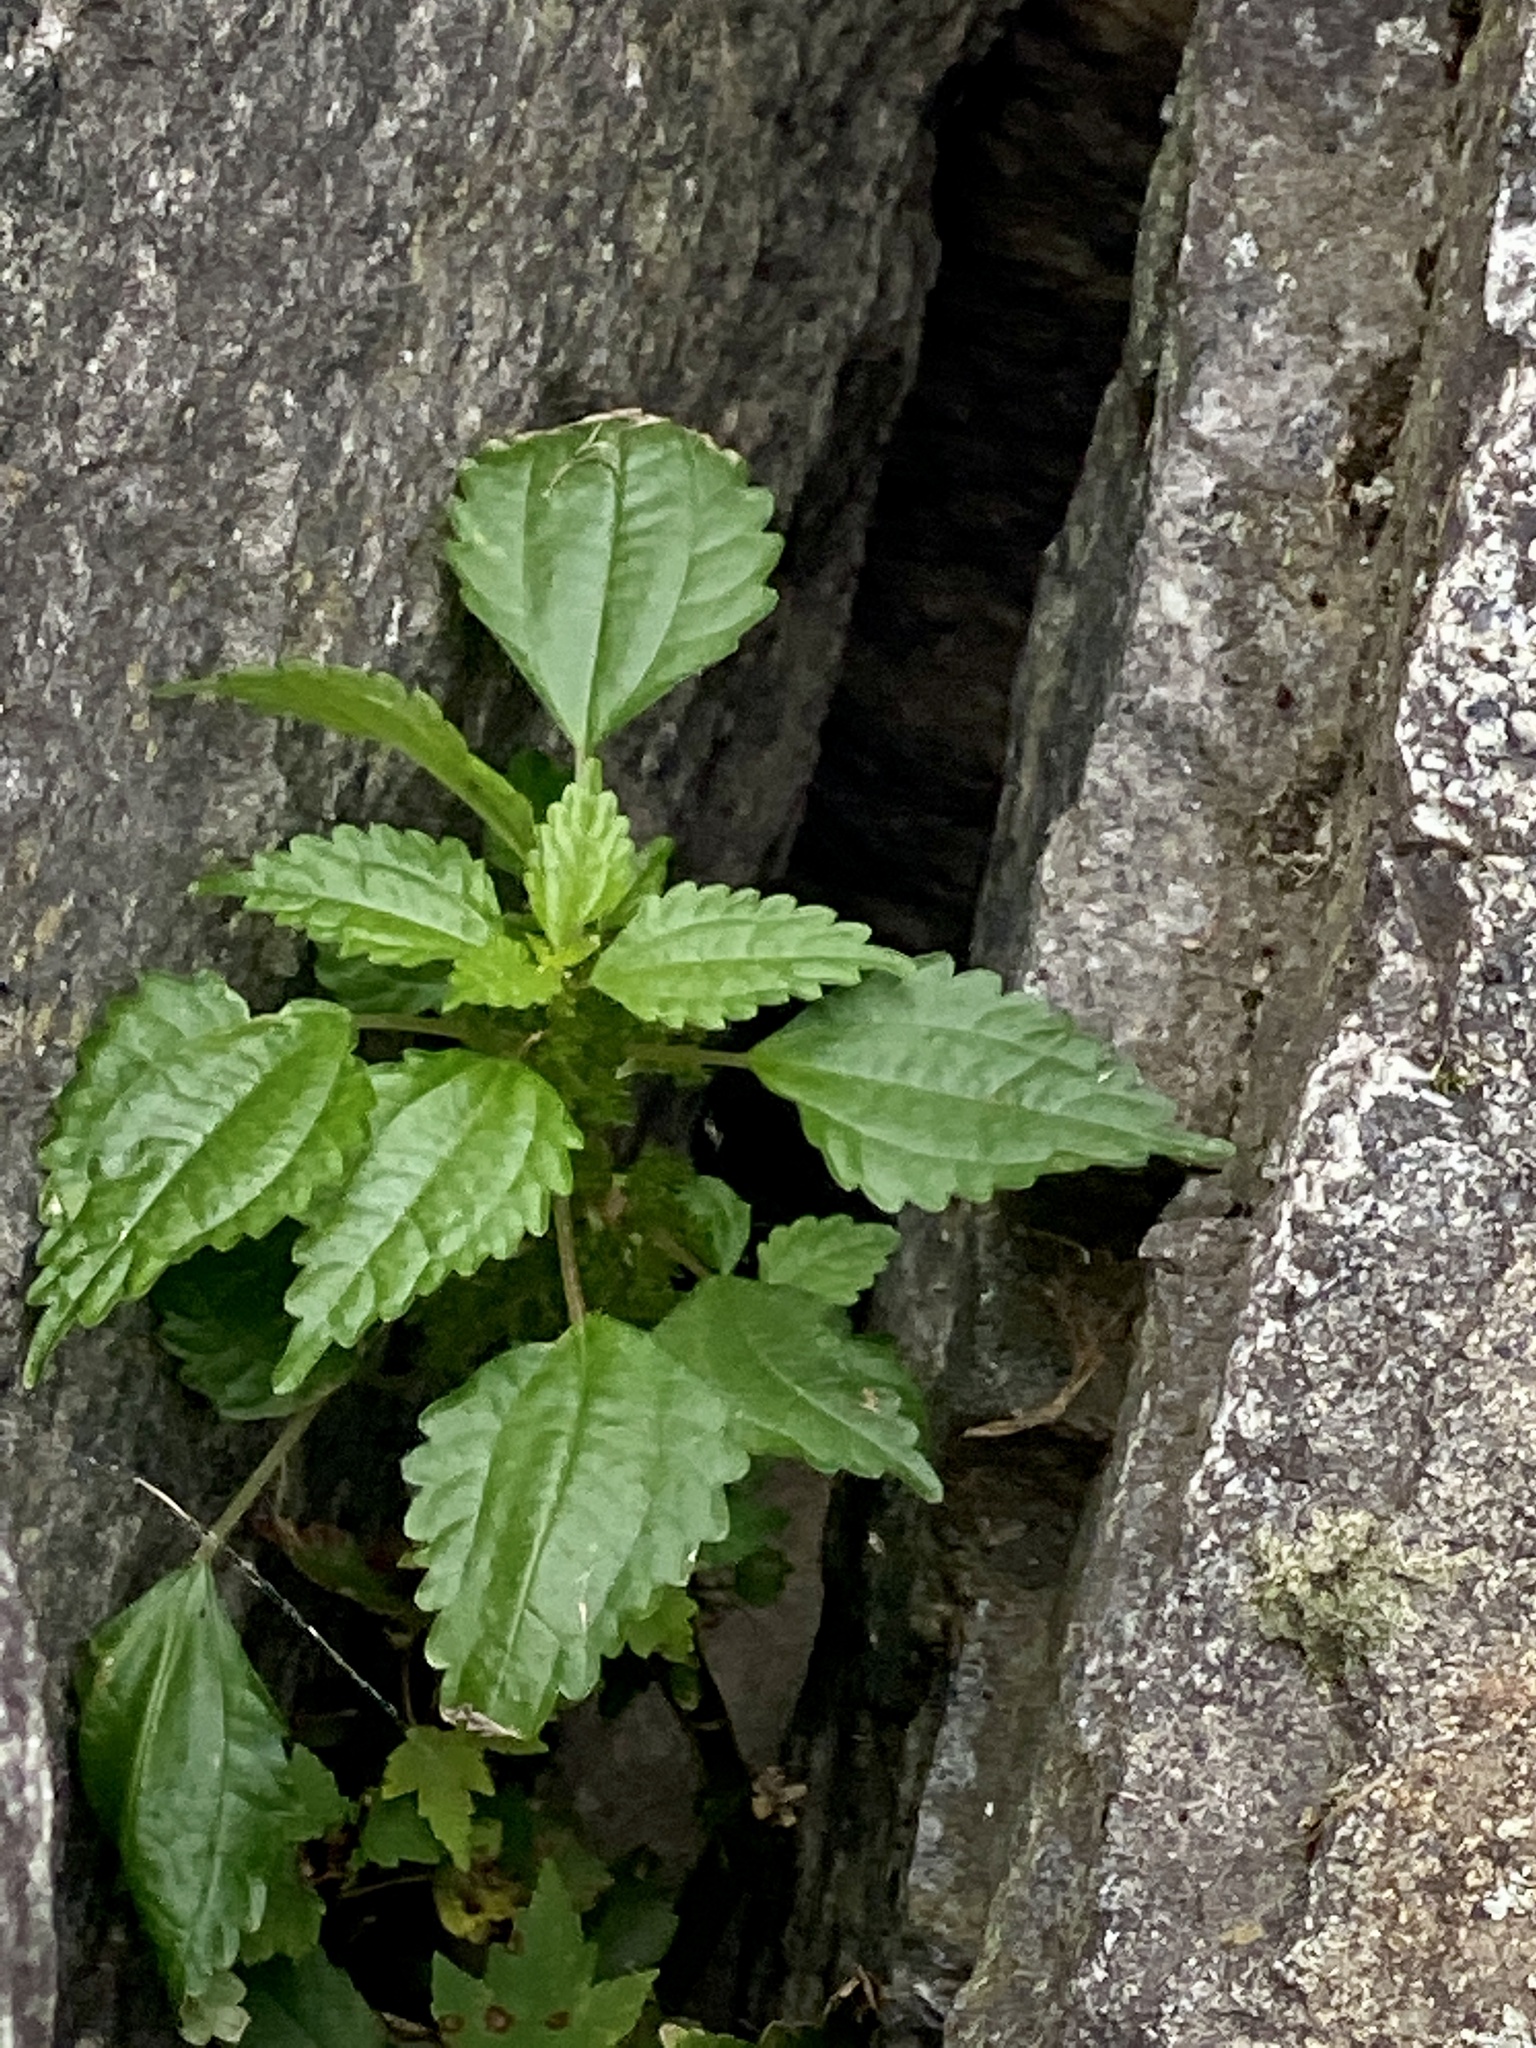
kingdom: Plantae
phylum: Tracheophyta
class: Magnoliopsida
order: Rosales
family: Urticaceae
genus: Pilea
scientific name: Pilea pumila
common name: Clearweed
